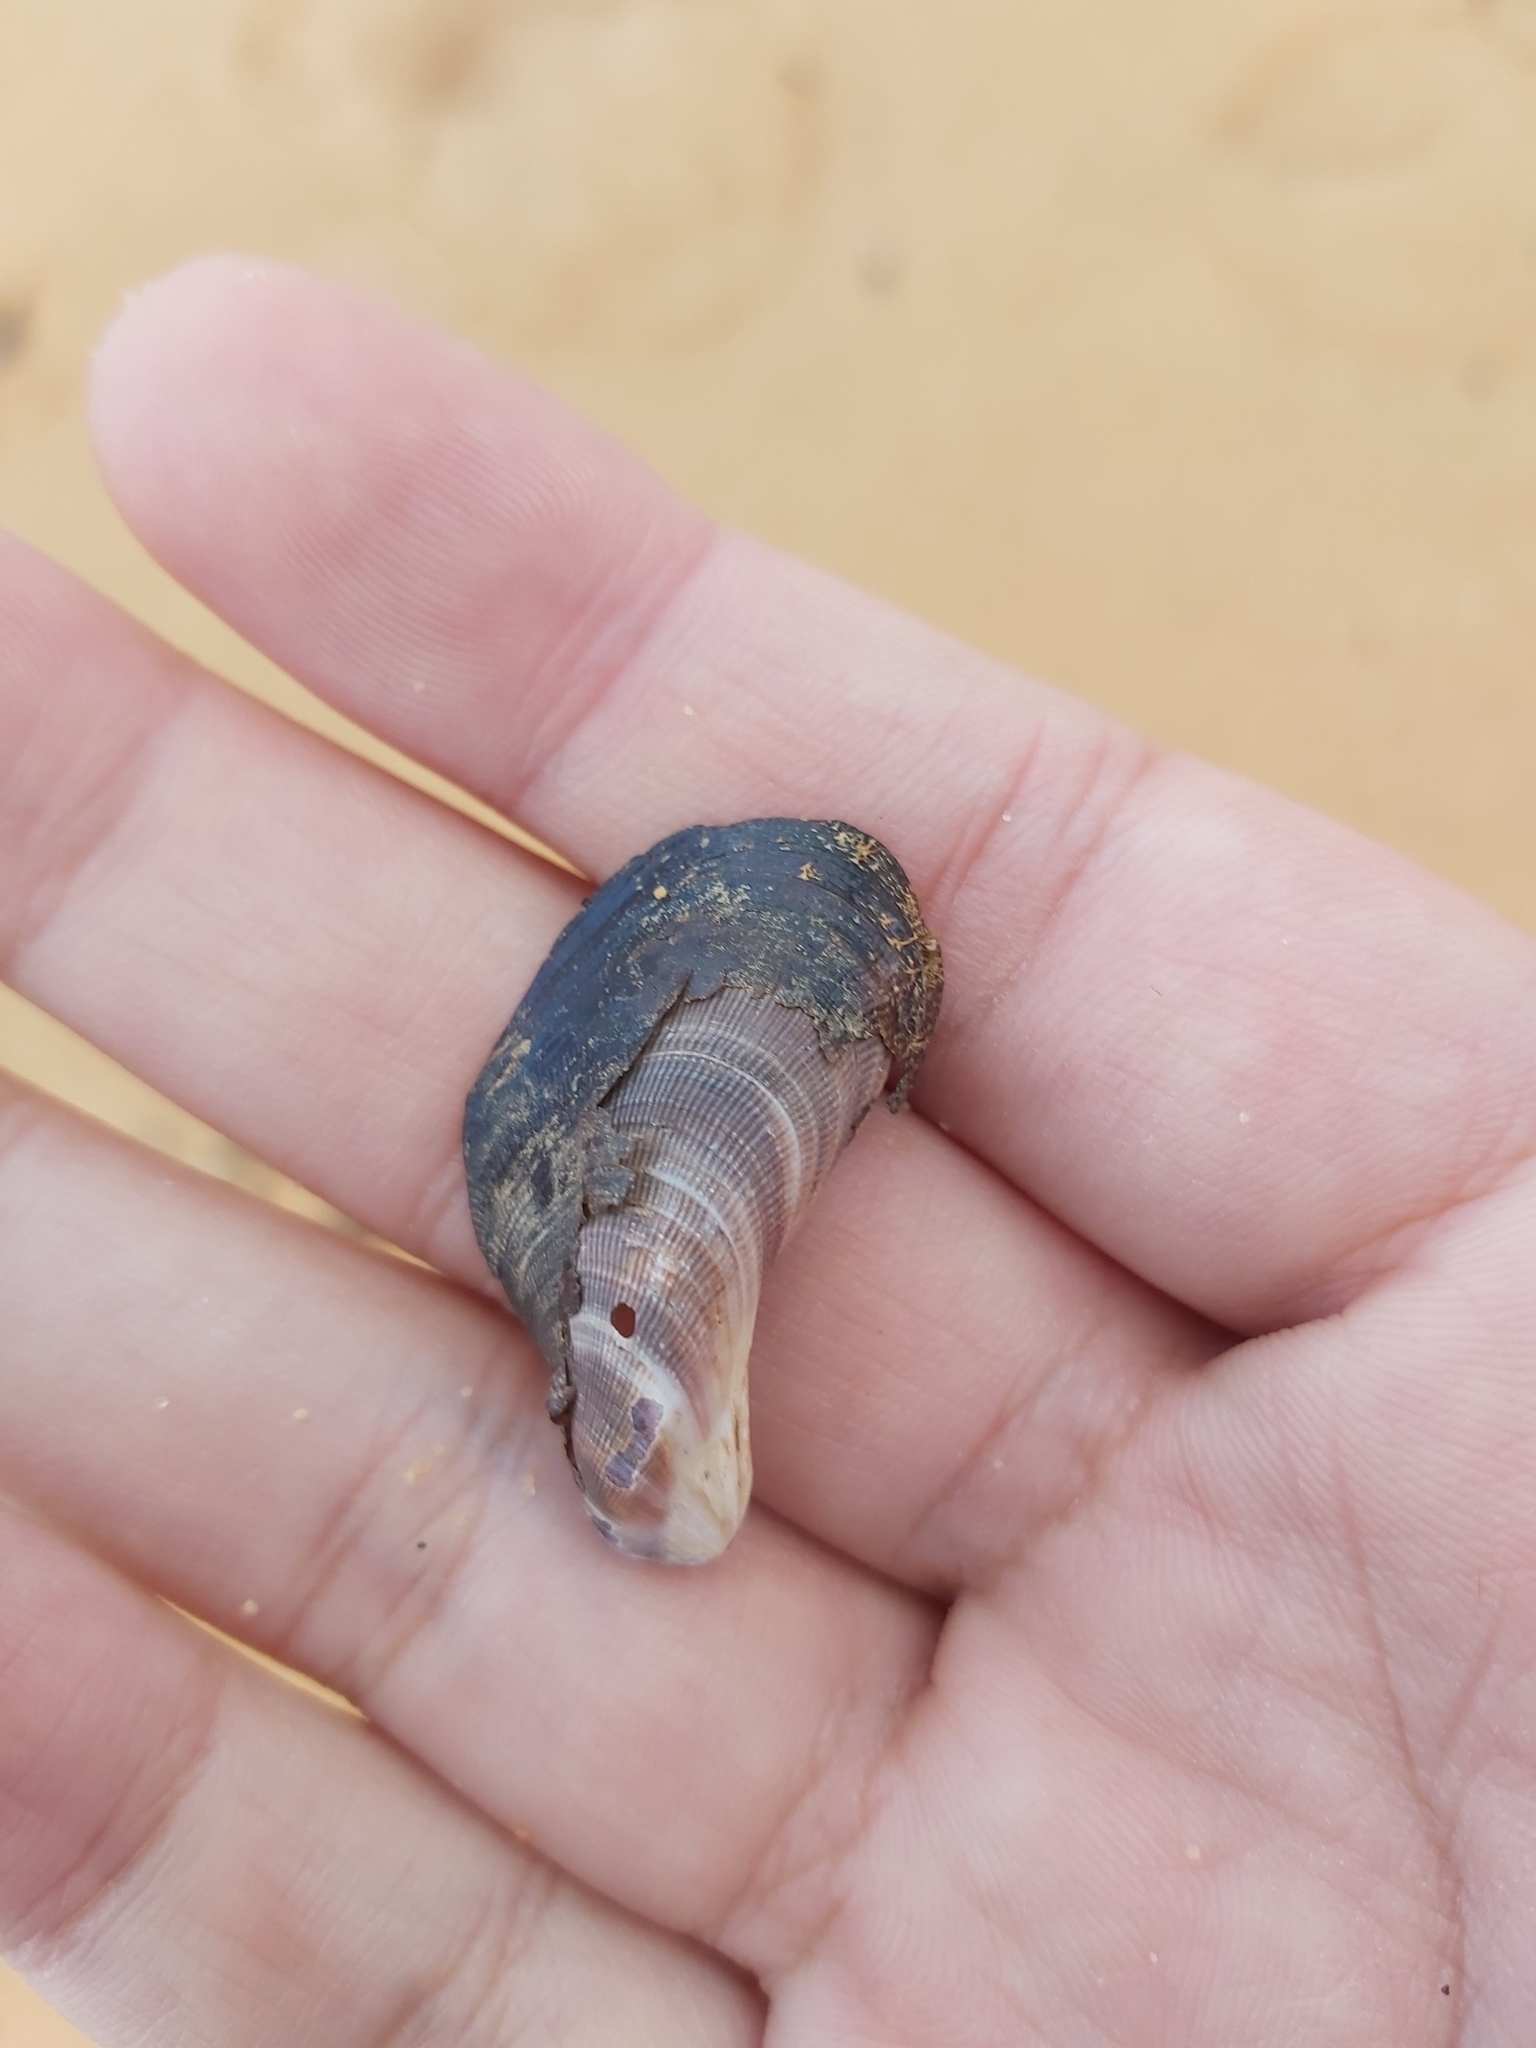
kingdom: Animalia
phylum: Mollusca
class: Bivalvia
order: Mytilida
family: Mytilidae
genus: Trichomya
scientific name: Trichomya hirsuta
